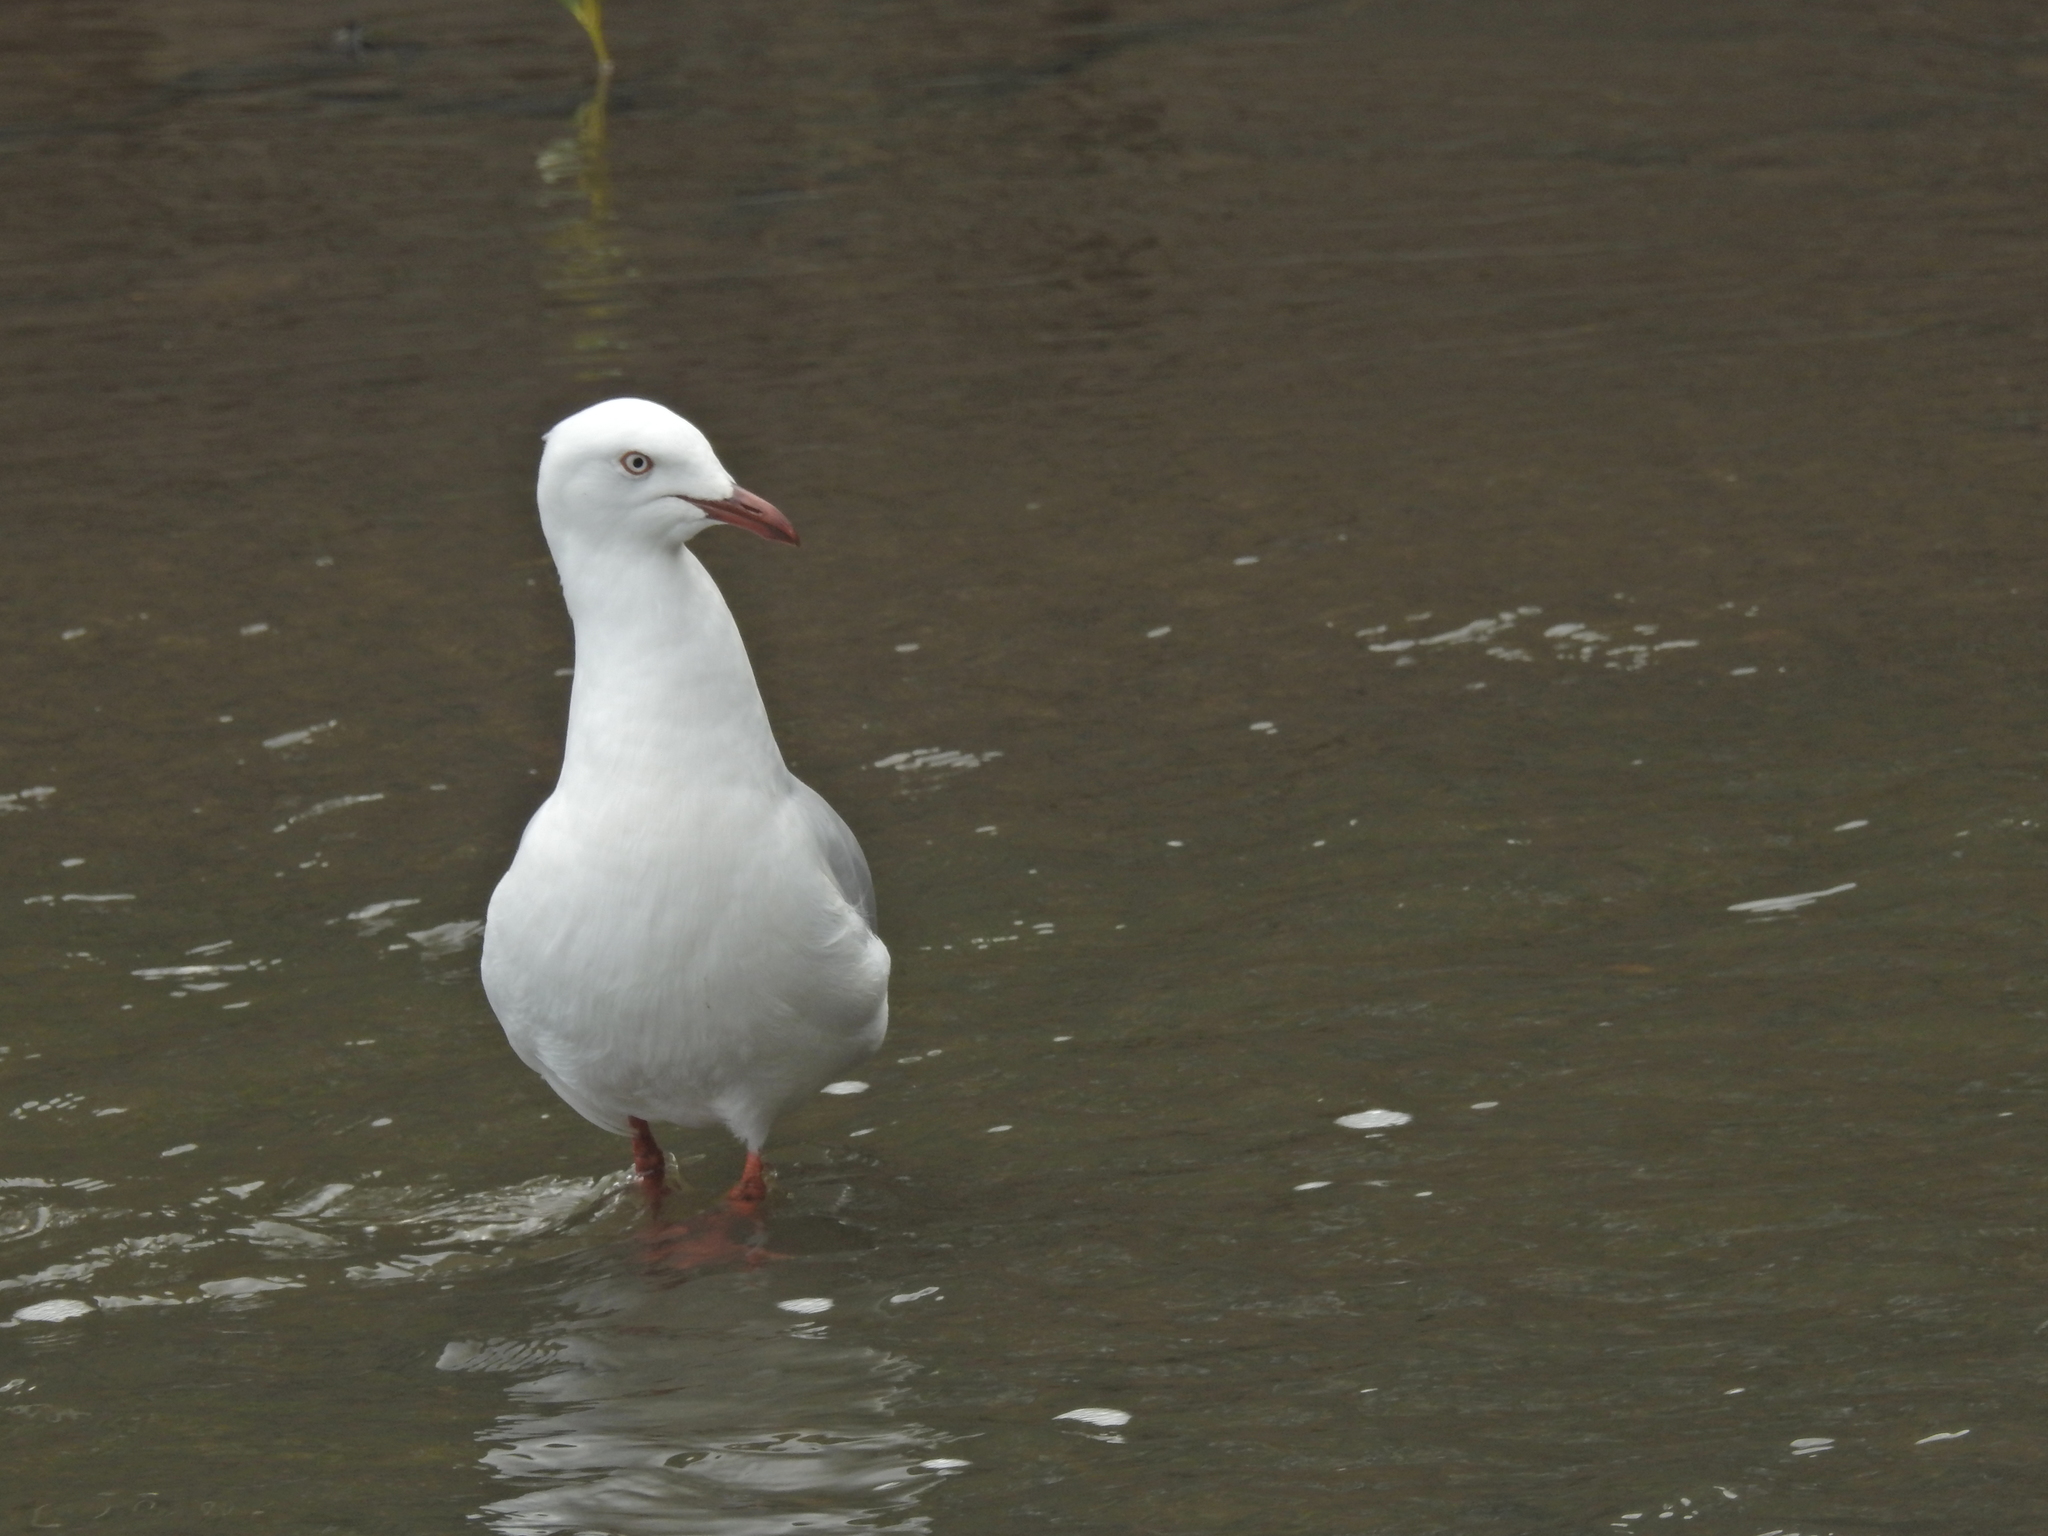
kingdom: Animalia
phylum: Chordata
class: Aves
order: Charadriiformes
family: Laridae
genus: Chroicocephalus
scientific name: Chroicocephalus novaehollandiae
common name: Silver gull
